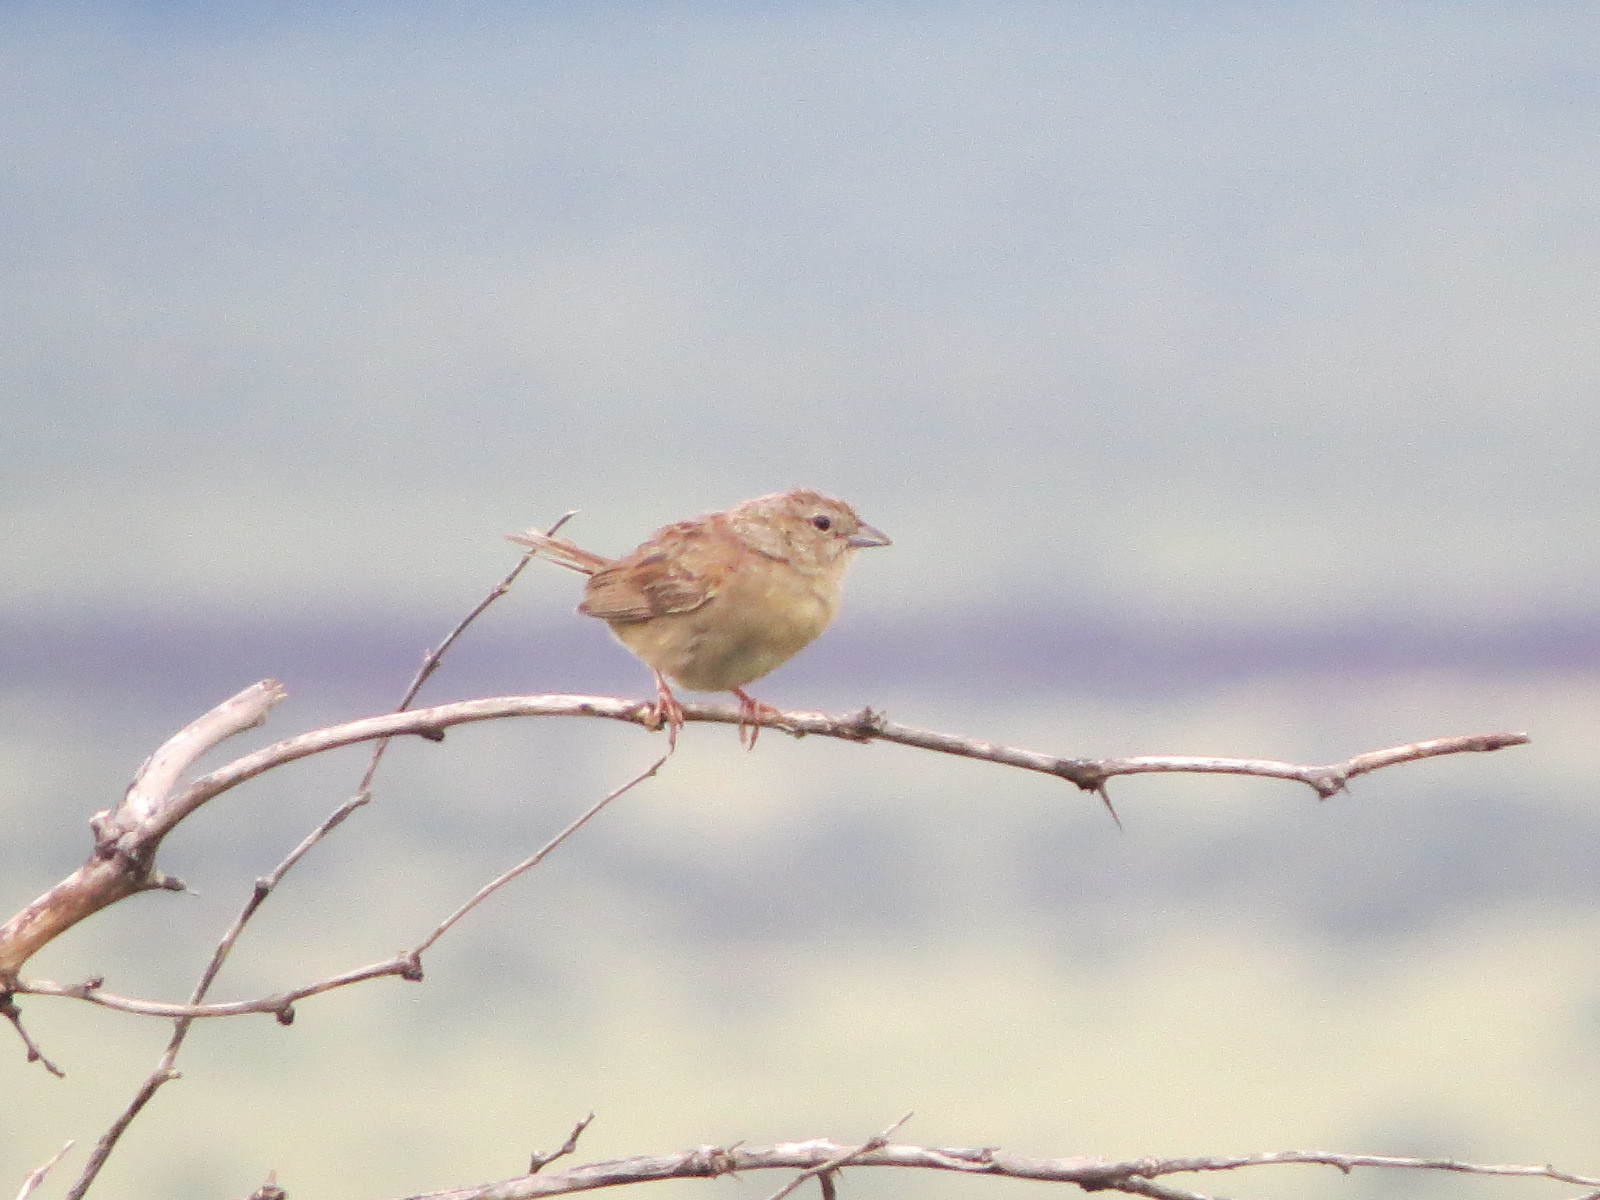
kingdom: Animalia
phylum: Chordata
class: Aves
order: Passeriformes
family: Passerellidae
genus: Peucaea
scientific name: Peucaea botterii
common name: Botteri's sparrow
